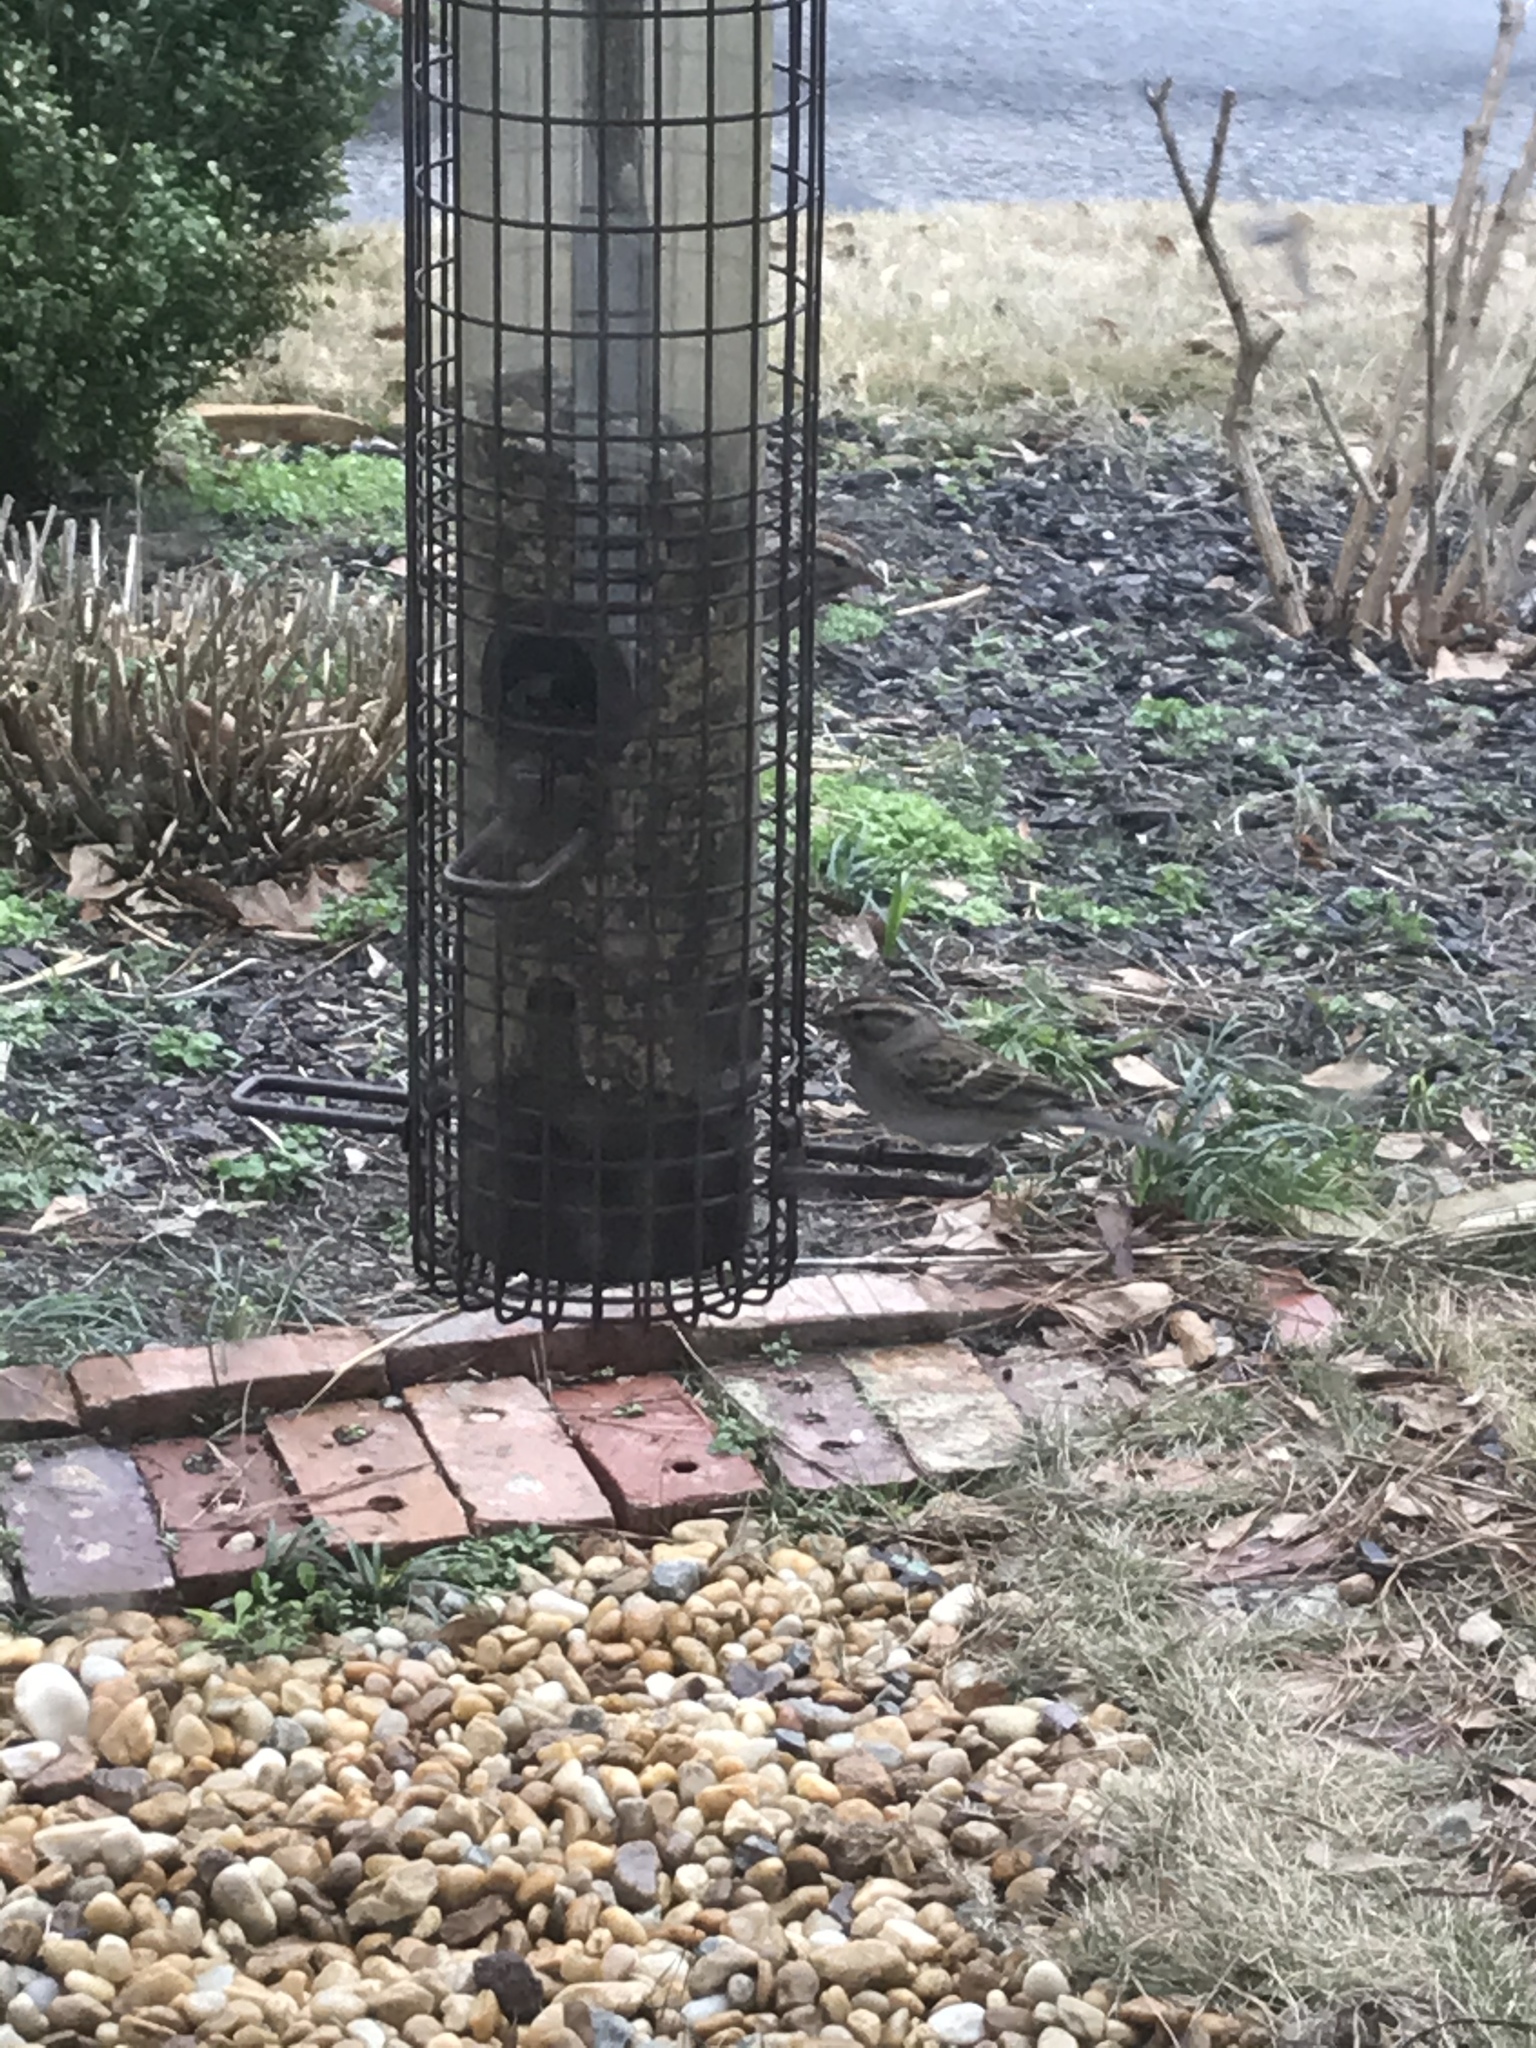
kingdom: Animalia
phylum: Chordata
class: Aves
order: Passeriformes
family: Fringillidae
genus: Haemorhous
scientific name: Haemorhous mexicanus
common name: House finch
